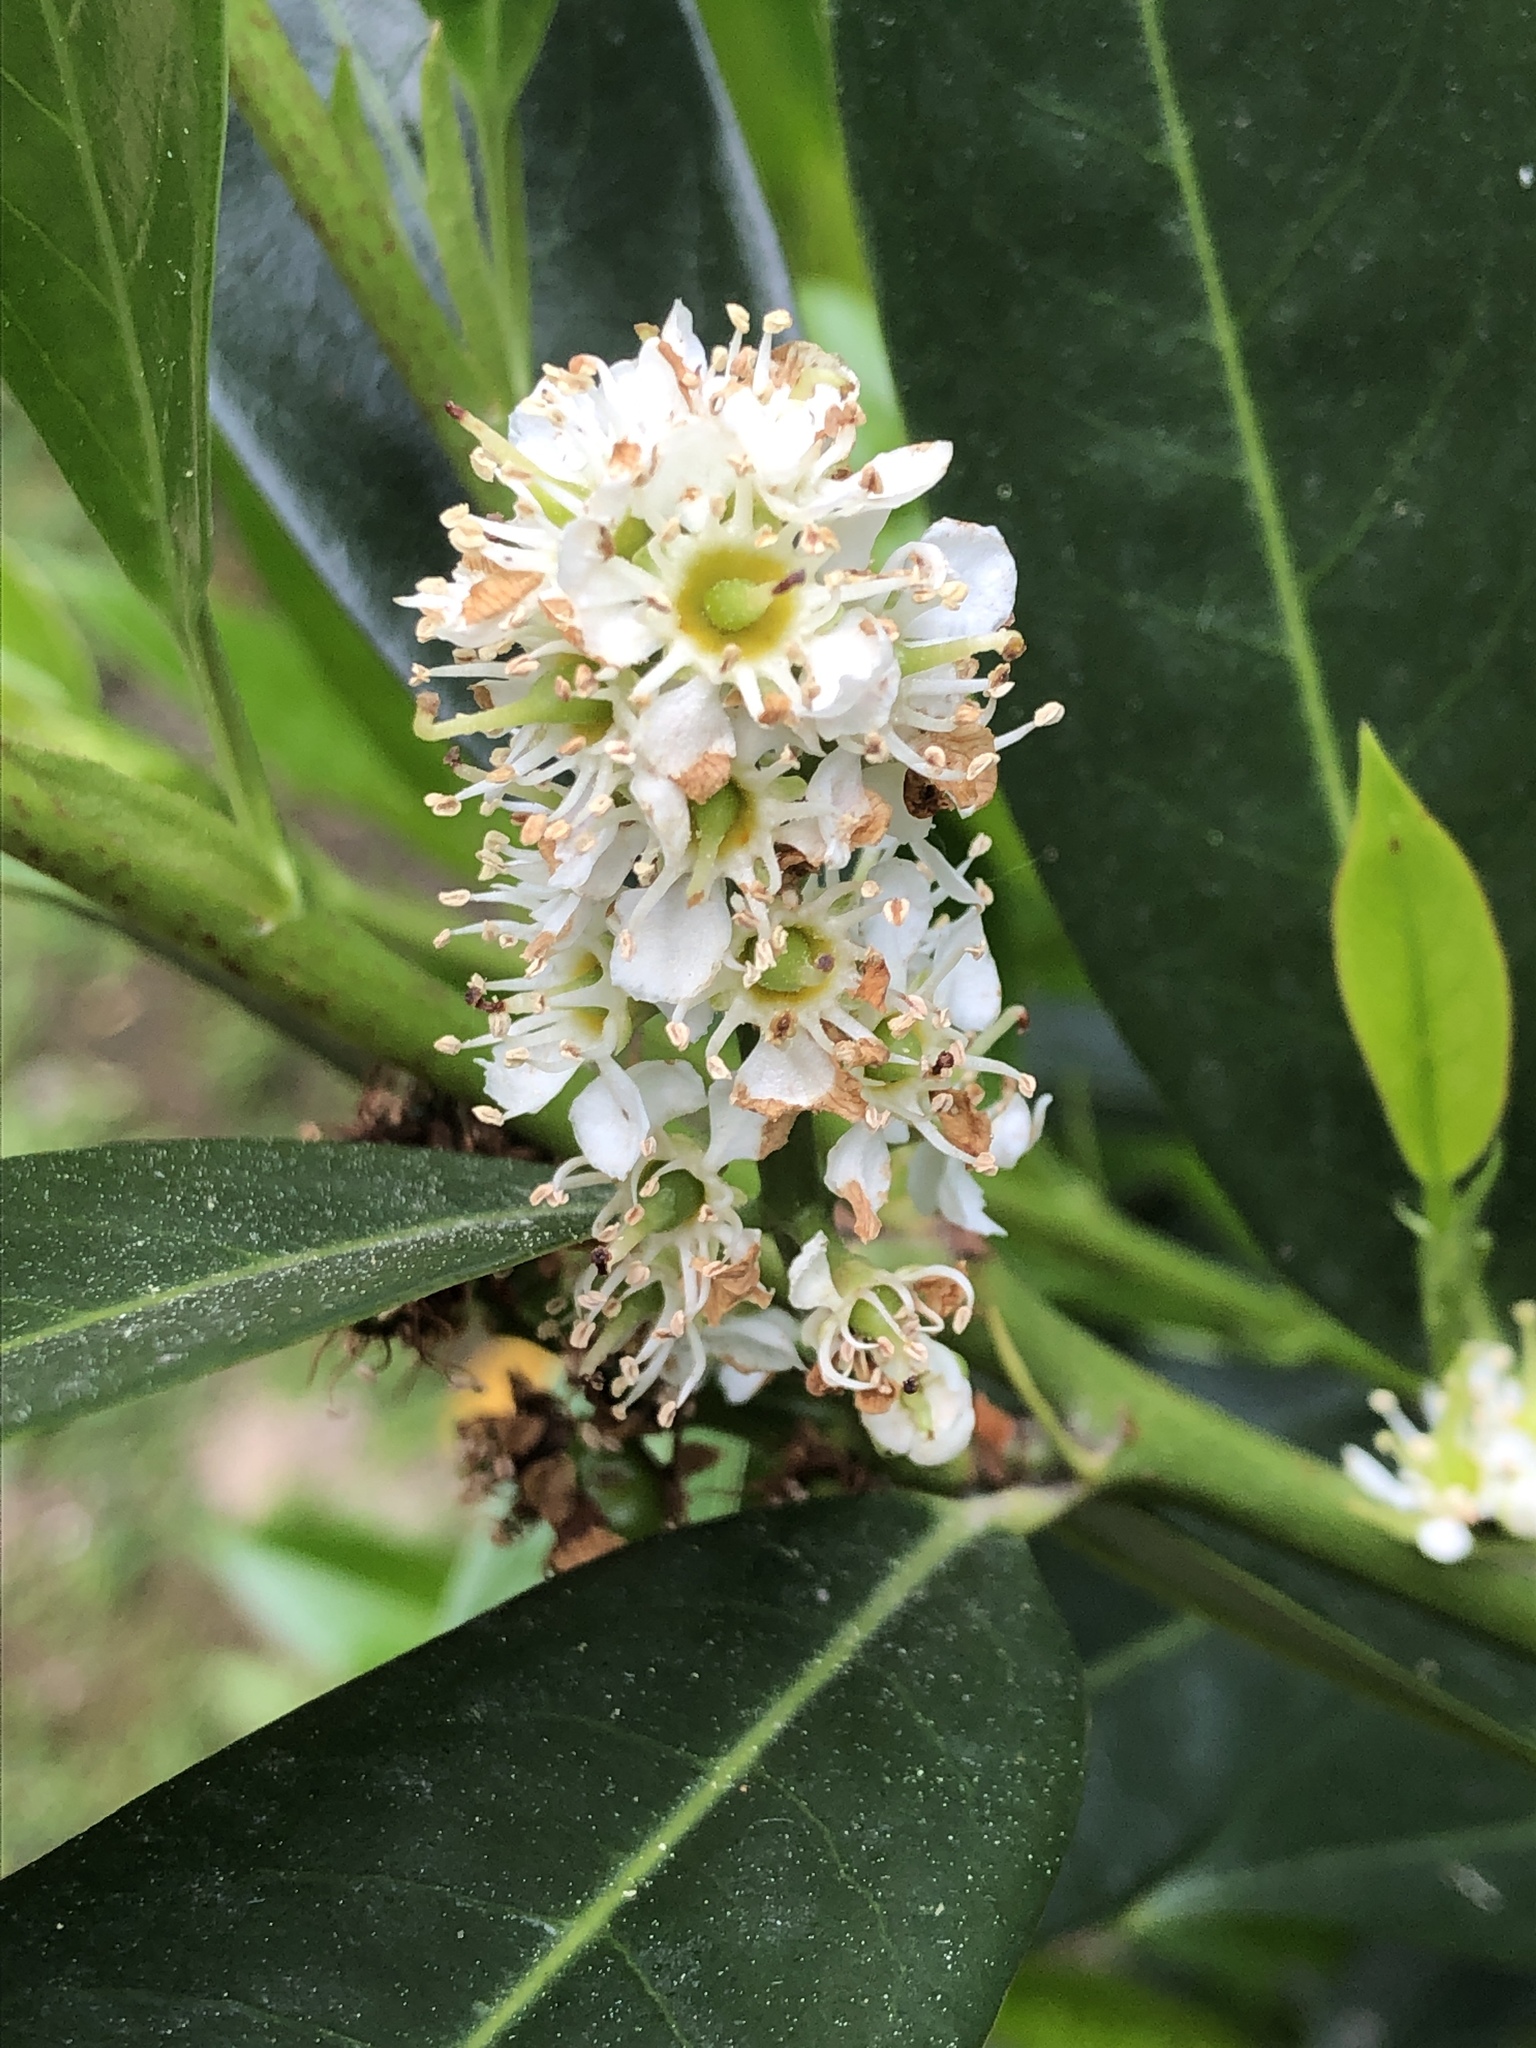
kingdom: Plantae
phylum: Tracheophyta
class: Magnoliopsida
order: Rosales
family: Rosaceae
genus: Prunus
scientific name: Prunus laurocerasus
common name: Cherry laurel
